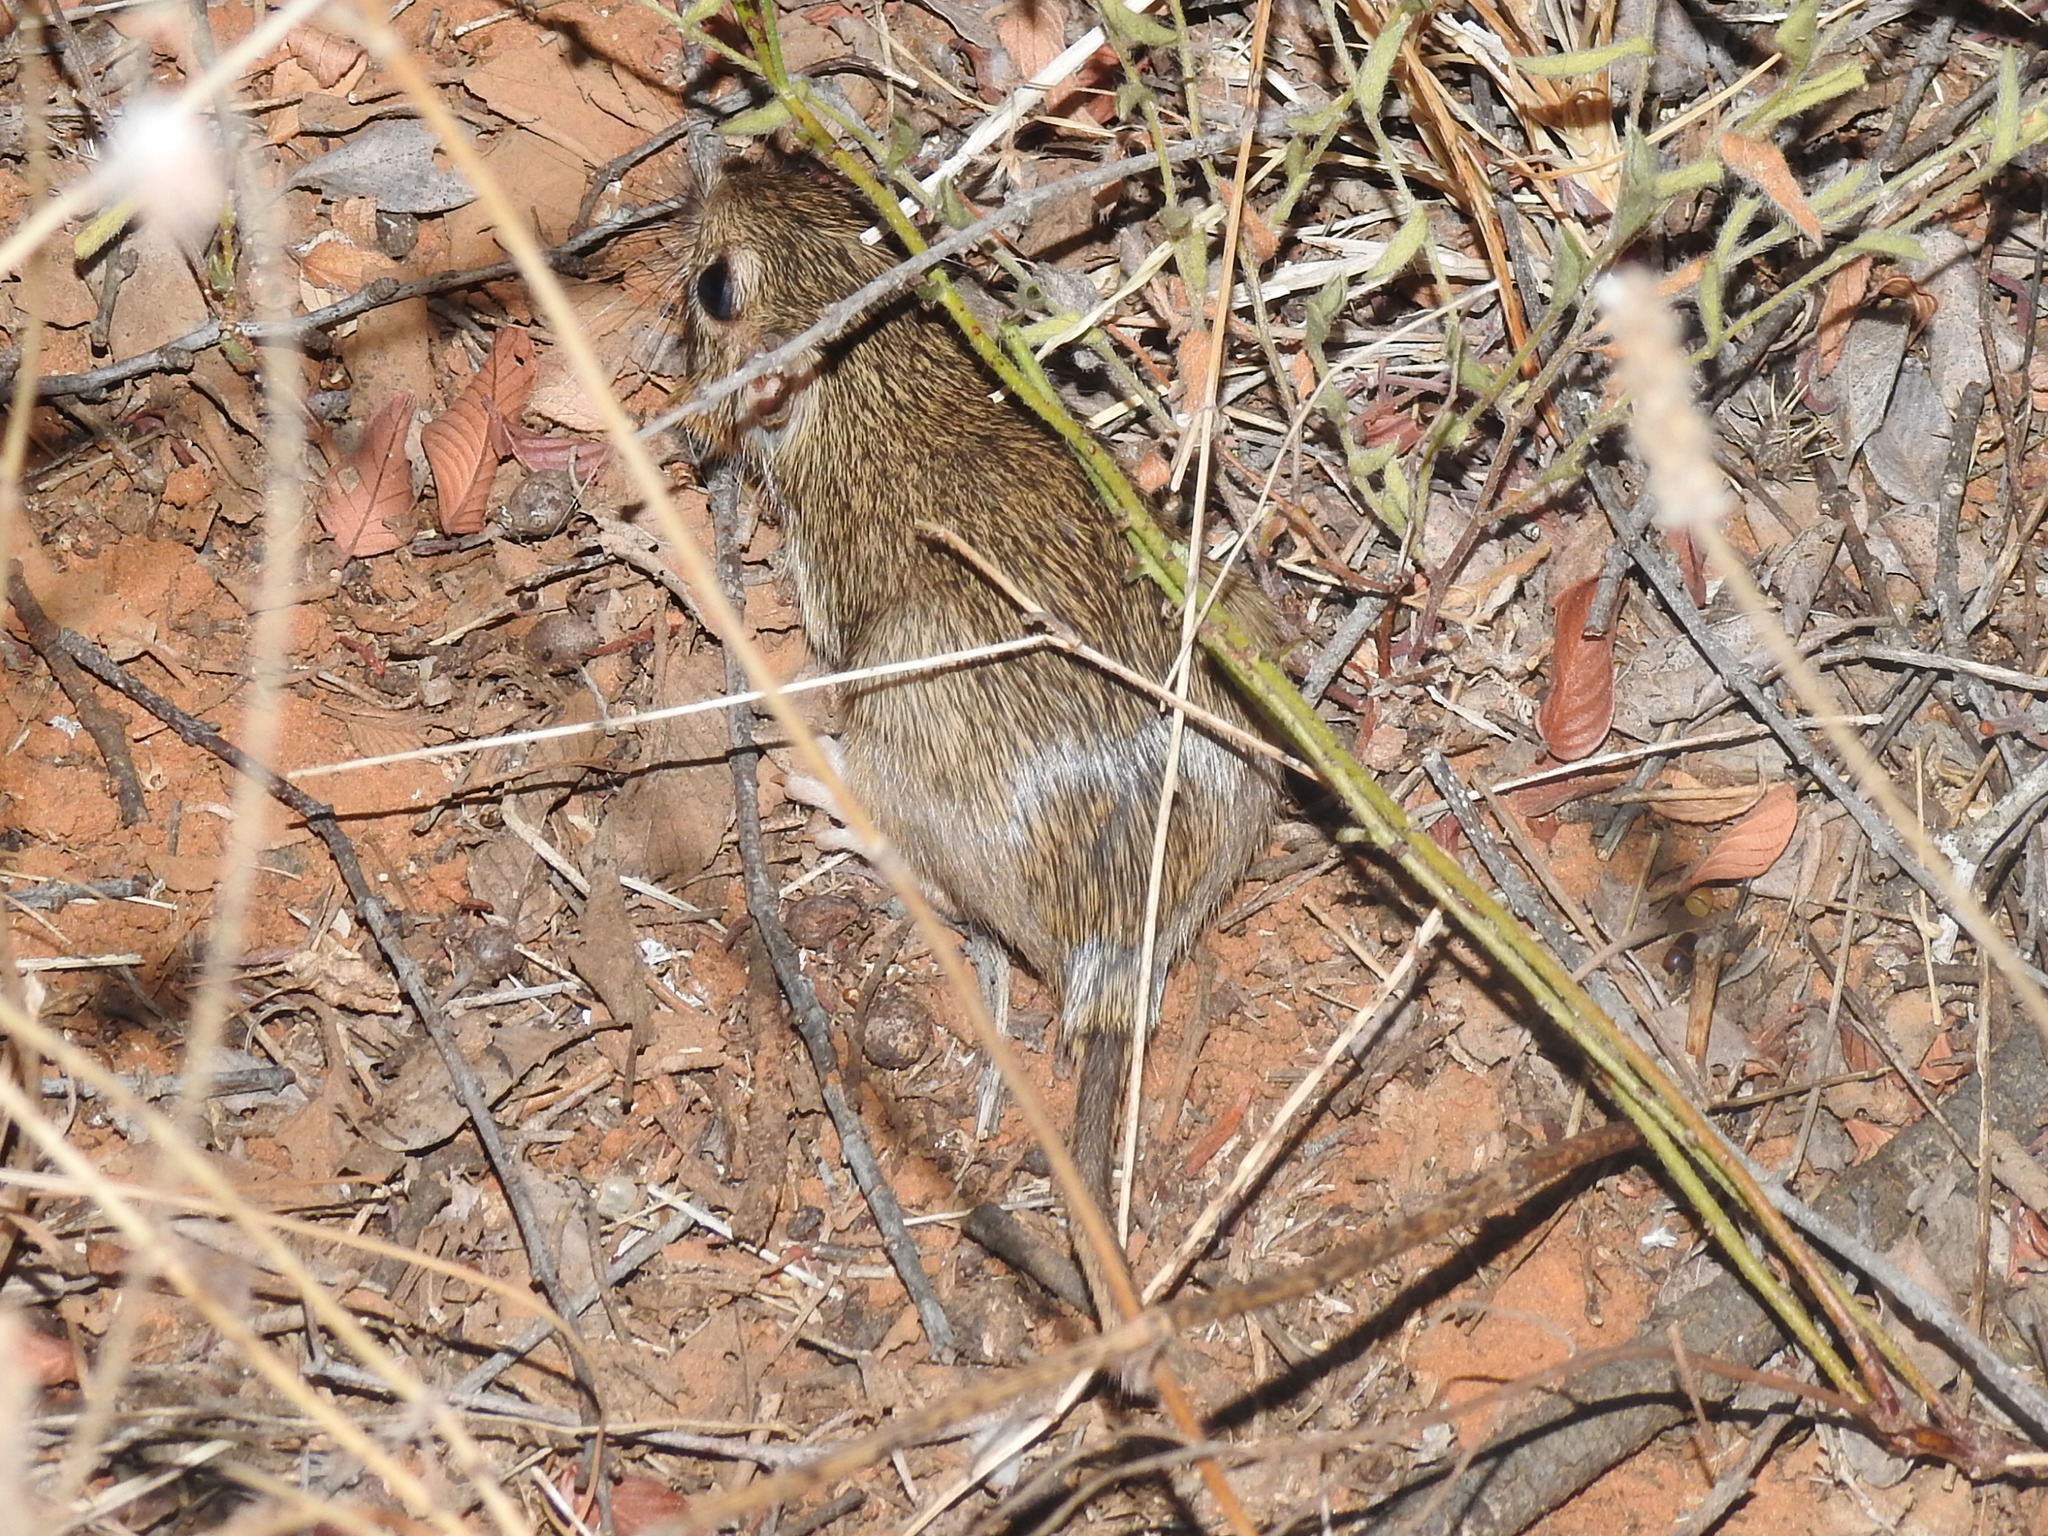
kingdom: Animalia
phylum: Chordata
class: Mammalia
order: Rodentia
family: Heteromyidae
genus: Chaetodipus
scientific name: Chaetodipus hispidus
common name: Hispid pocket mouse
